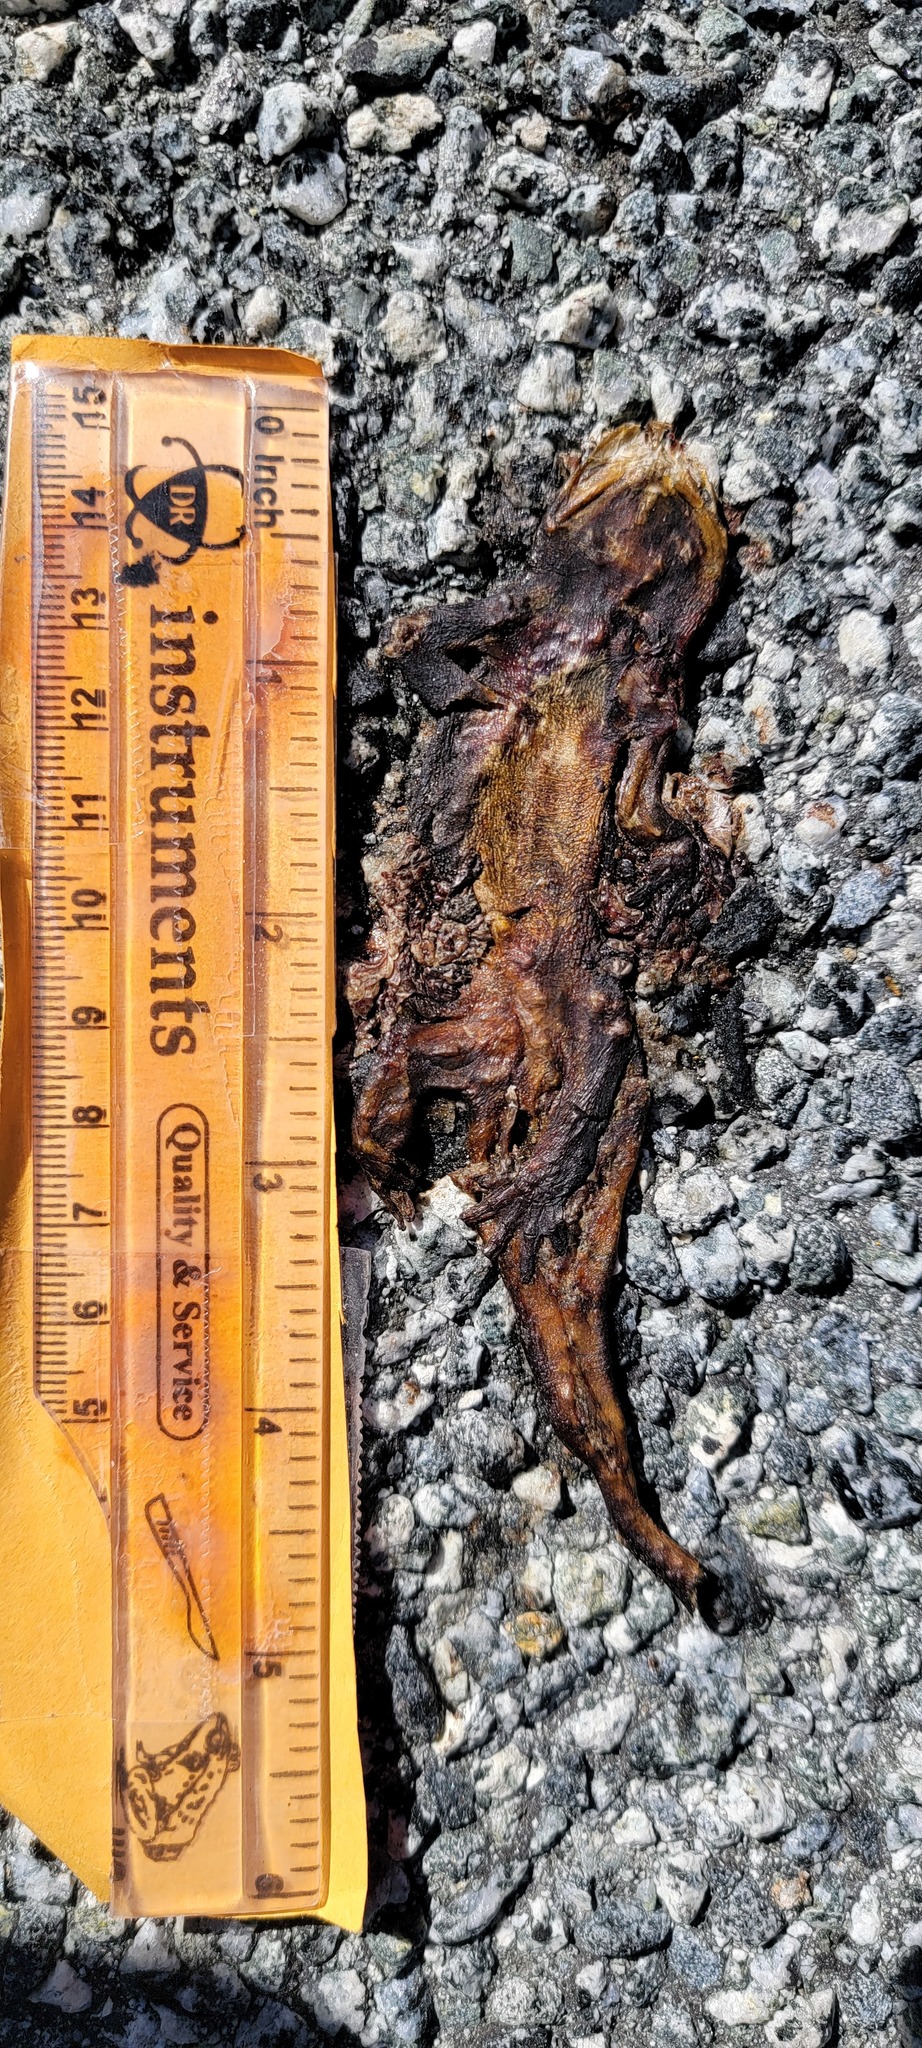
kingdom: Animalia
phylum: Chordata
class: Amphibia
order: Caudata
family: Salamandridae
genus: Taricha
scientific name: Taricha
